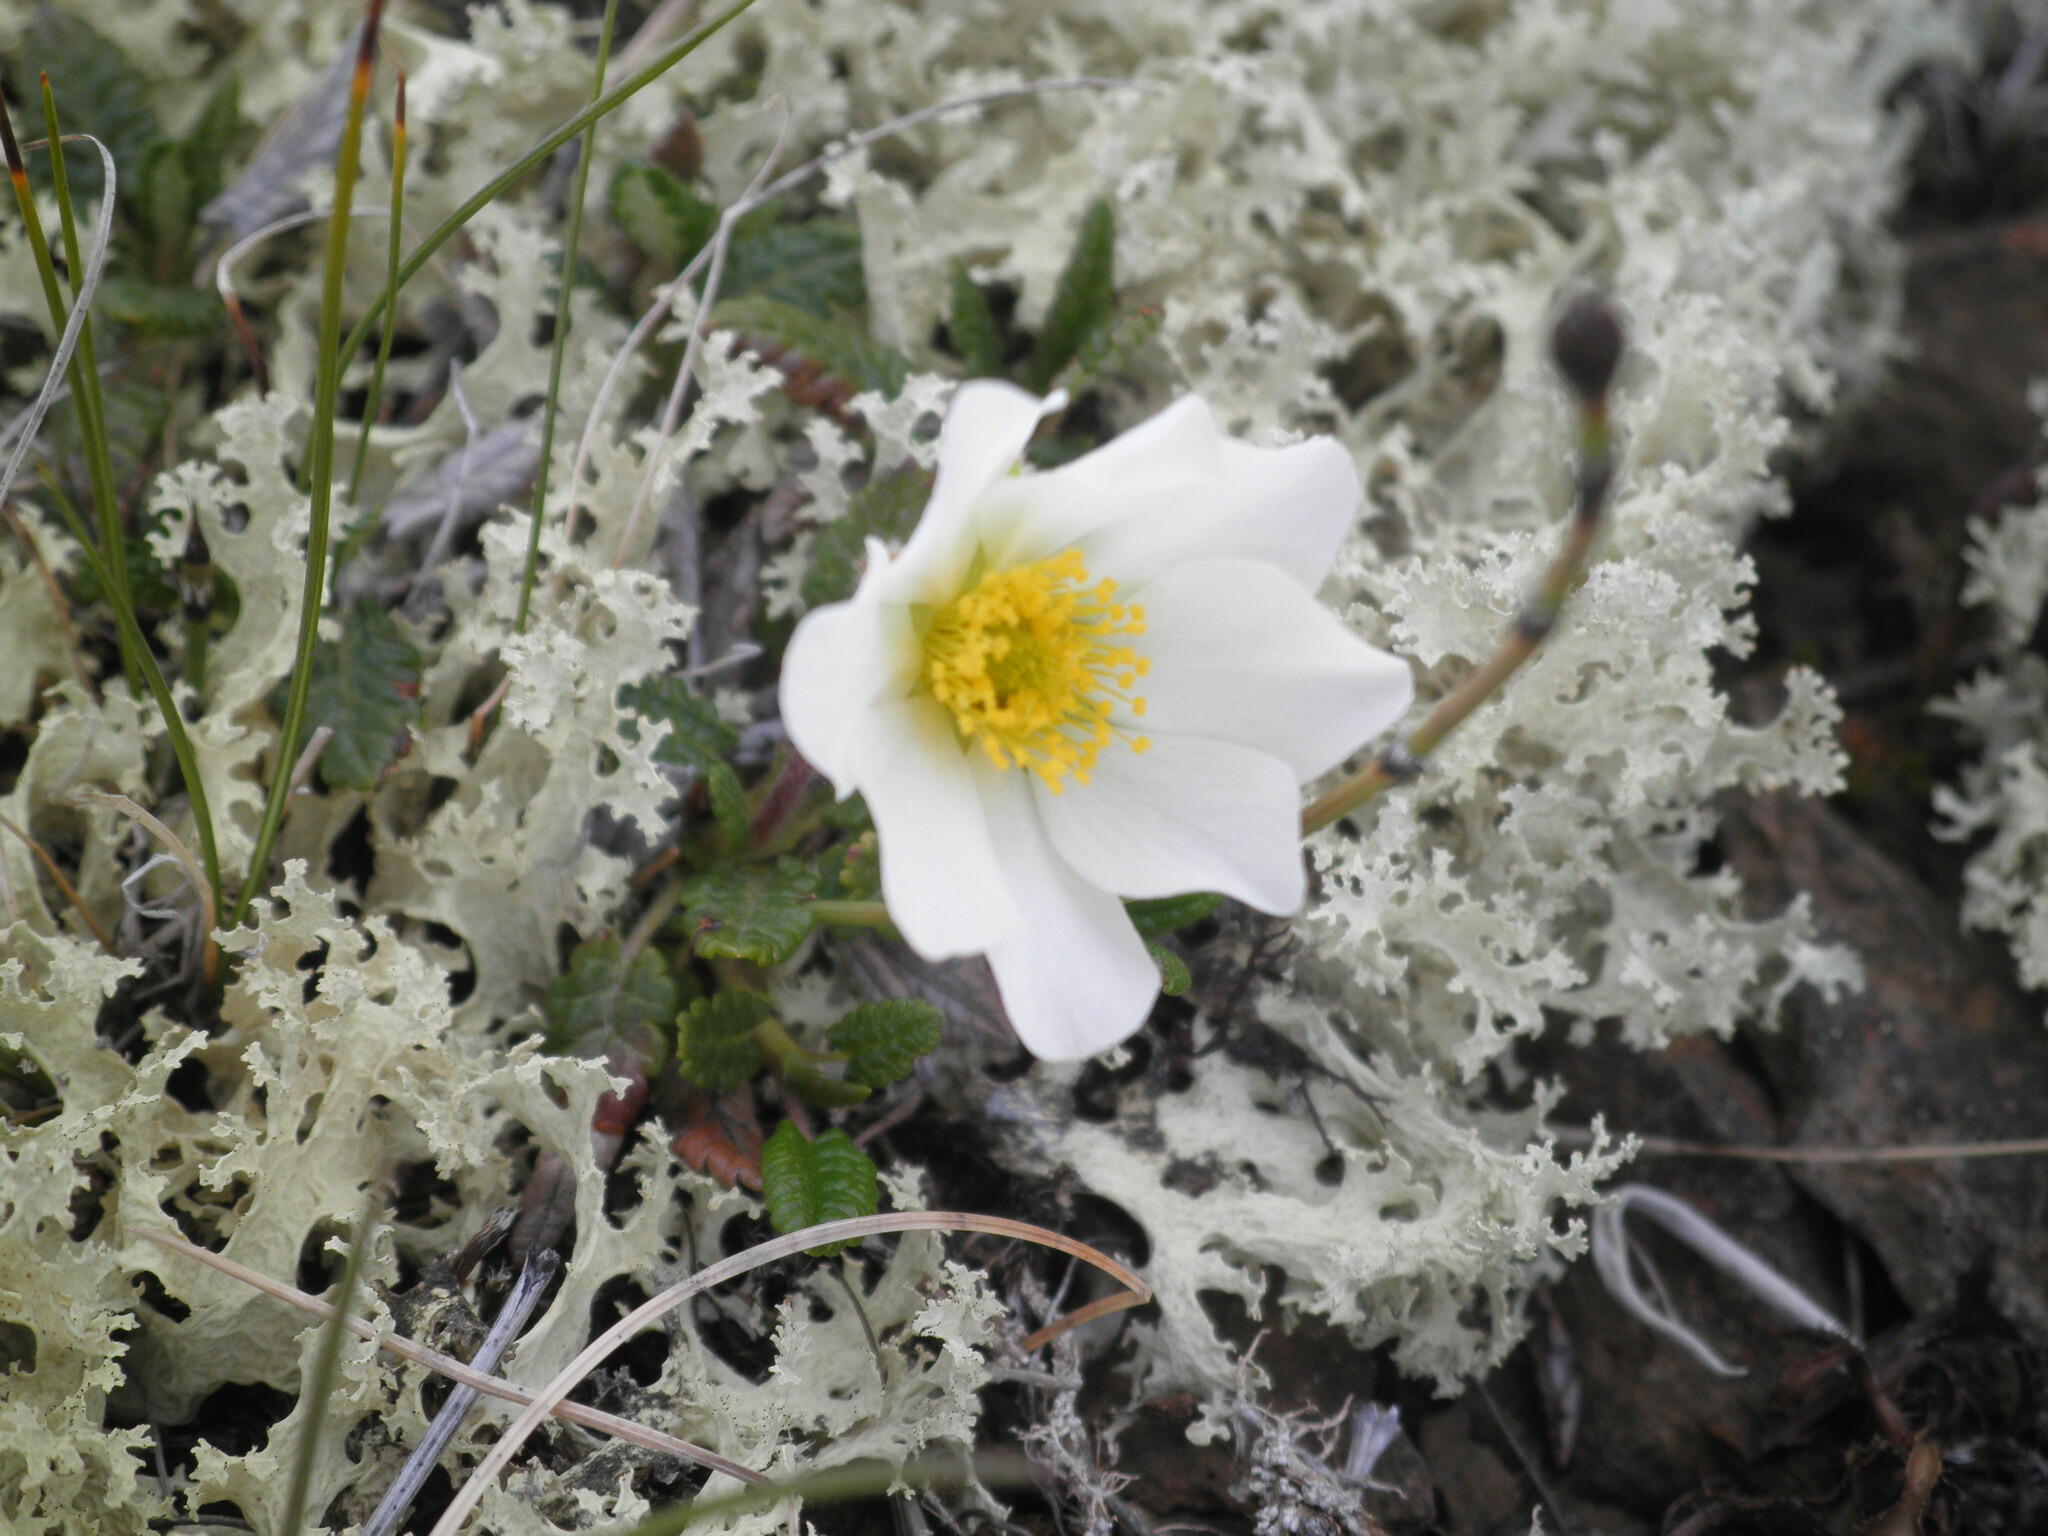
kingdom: Plantae
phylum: Tracheophyta
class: Magnoliopsida
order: Rosales
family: Rosaceae
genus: Dryas
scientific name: Dryas octopetala
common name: Eight-petal mountain-avens
